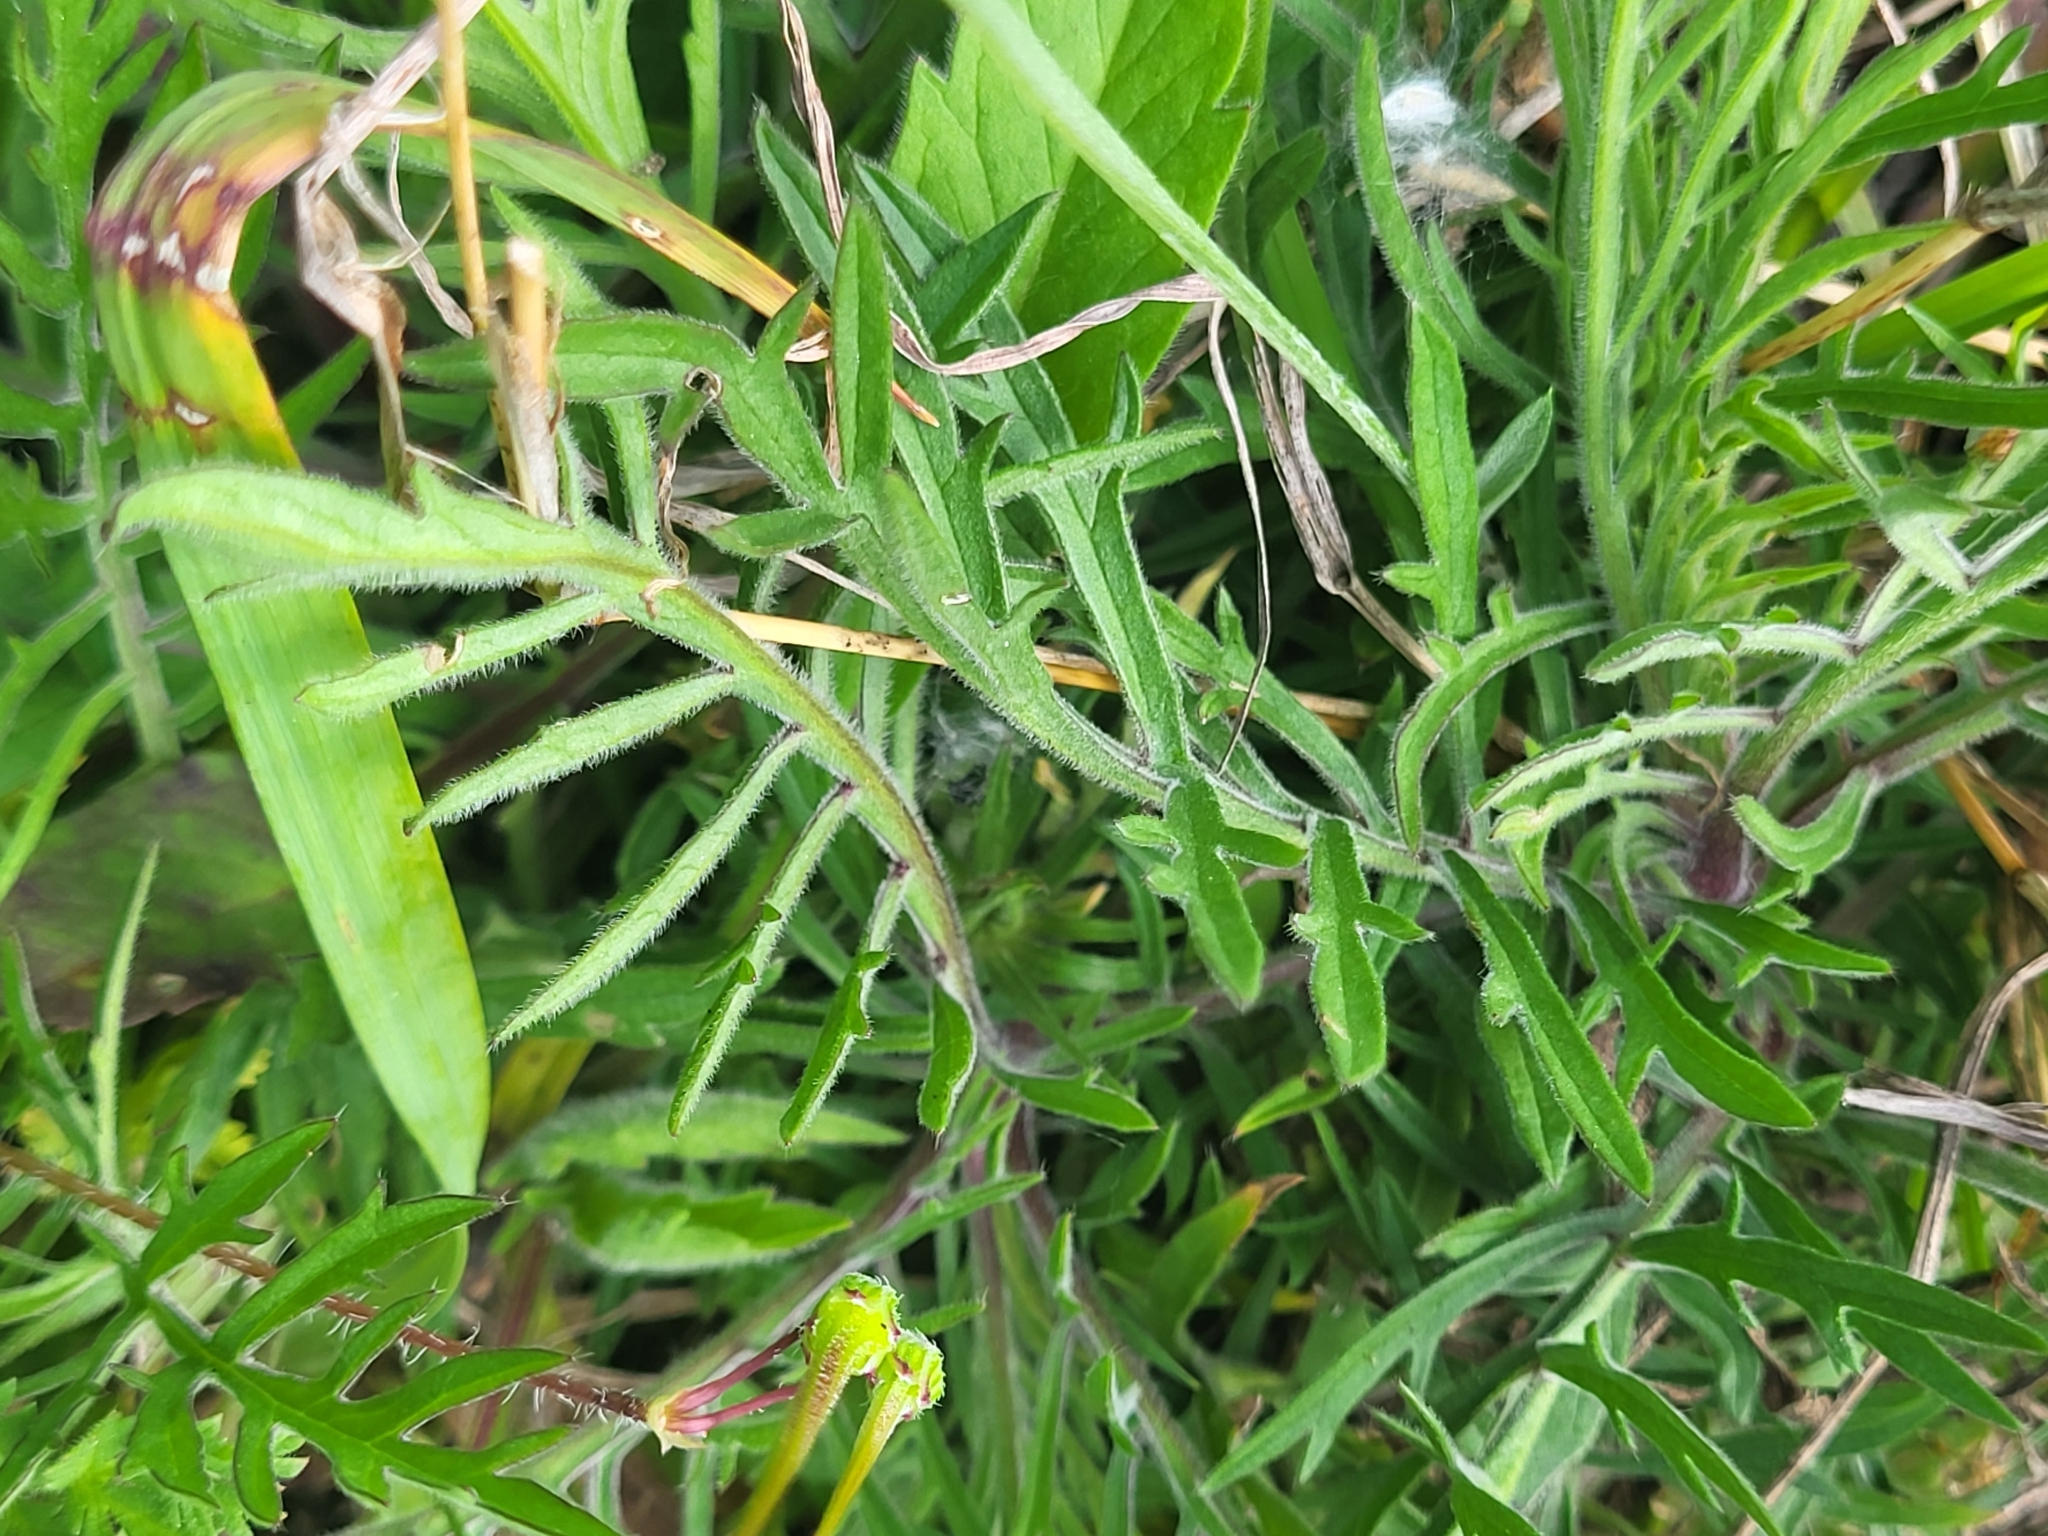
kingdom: Plantae
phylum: Tracheophyta
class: Magnoliopsida
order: Dipsacales
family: Caprifoliaceae
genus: Scabiosa
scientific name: Scabiosa ochroleuca
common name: Cream pincushions
